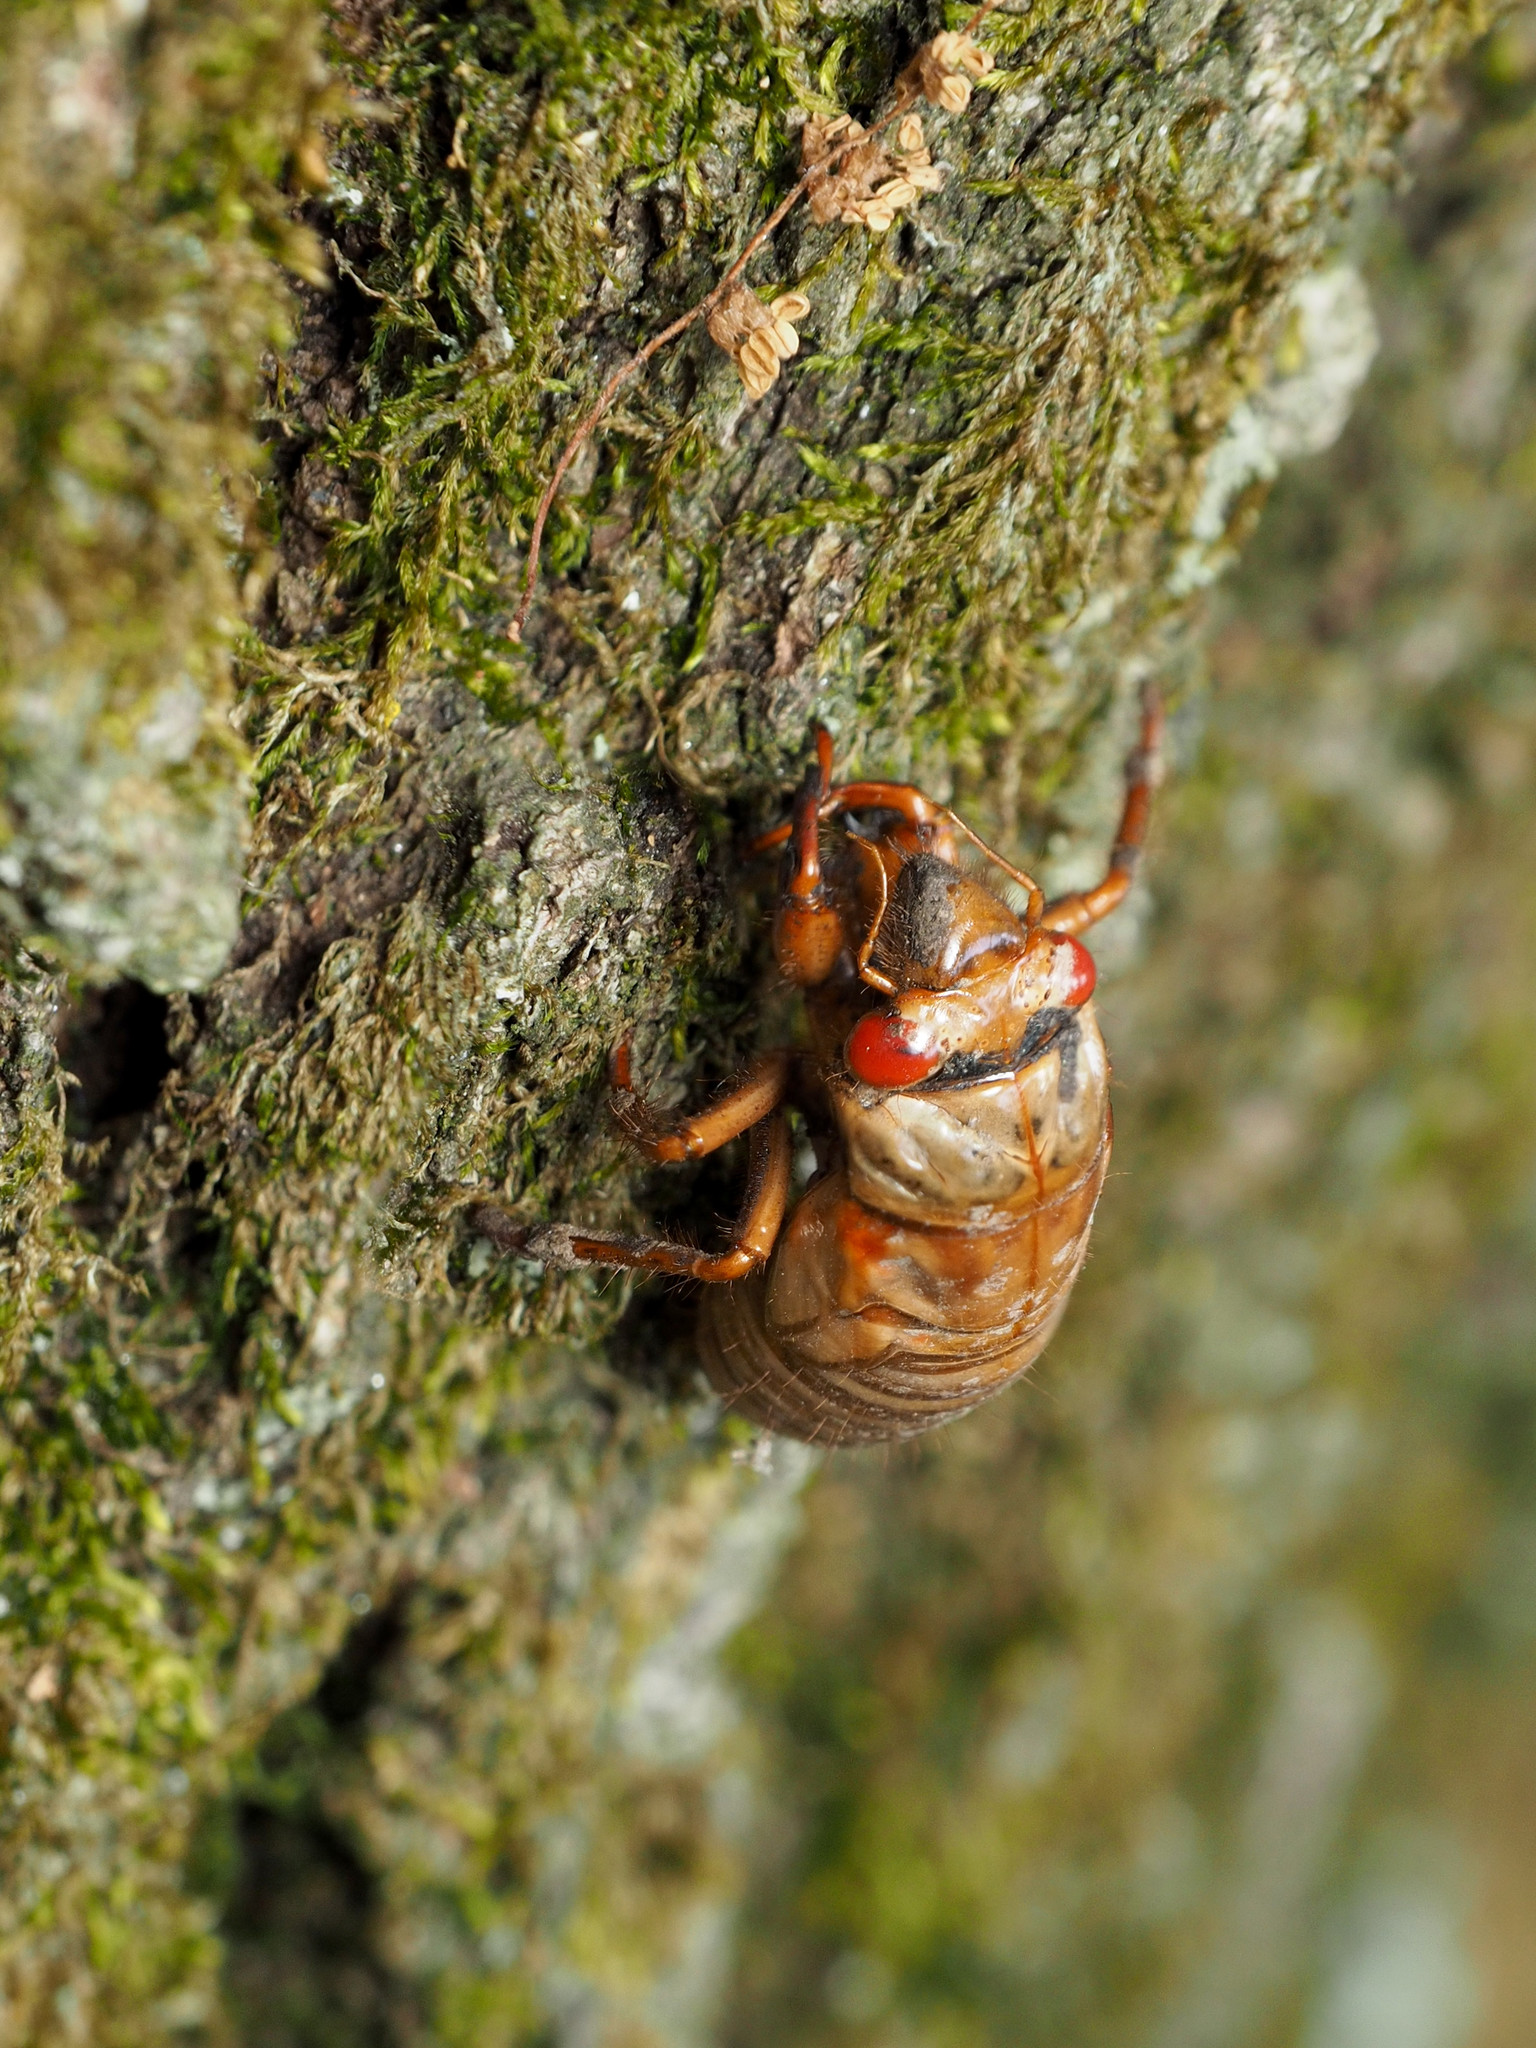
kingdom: Animalia
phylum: Arthropoda
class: Insecta
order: Hemiptera
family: Cicadidae
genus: Magicicada
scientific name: Magicicada
